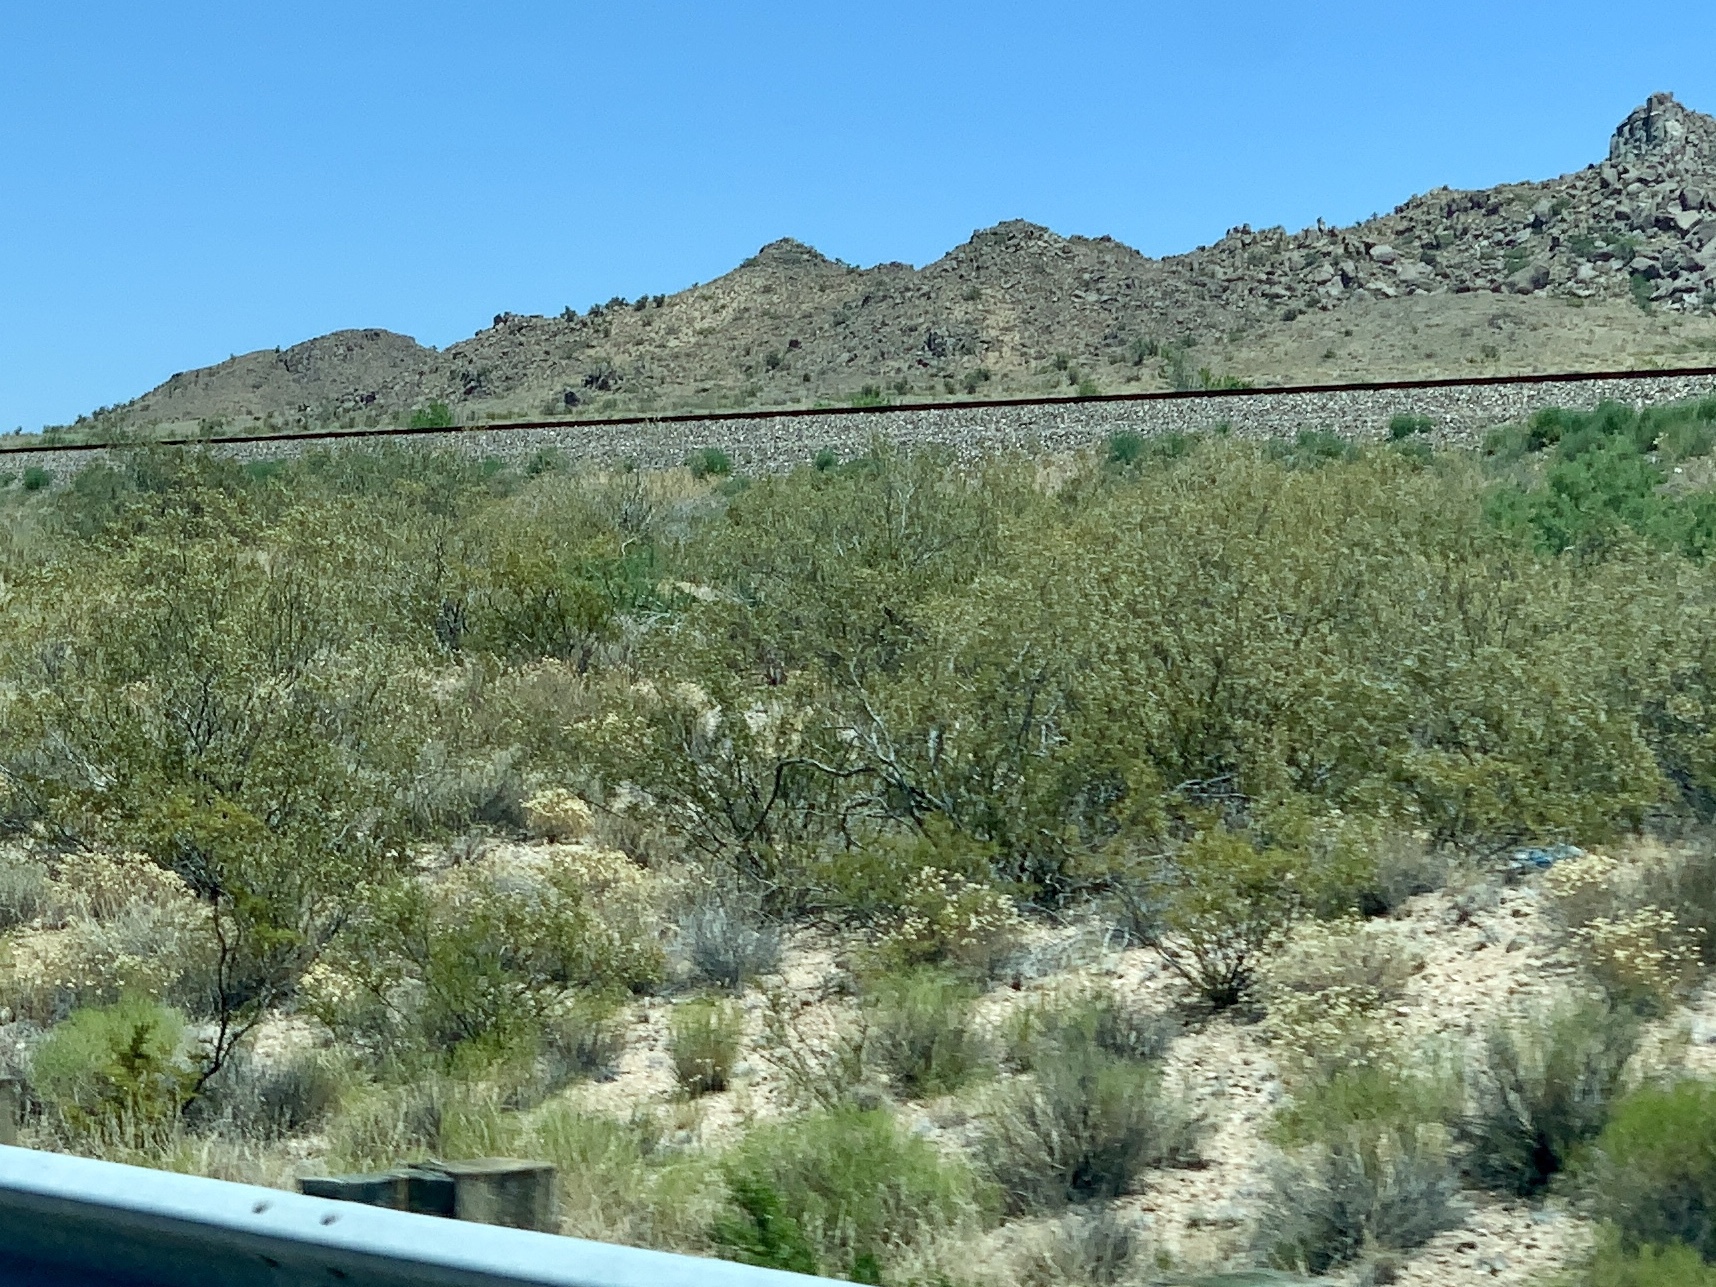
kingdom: Plantae
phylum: Tracheophyta
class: Magnoliopsida
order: Zygophyllales
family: Zygophyllaceae
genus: Larrea
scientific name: Larrea tridentata
